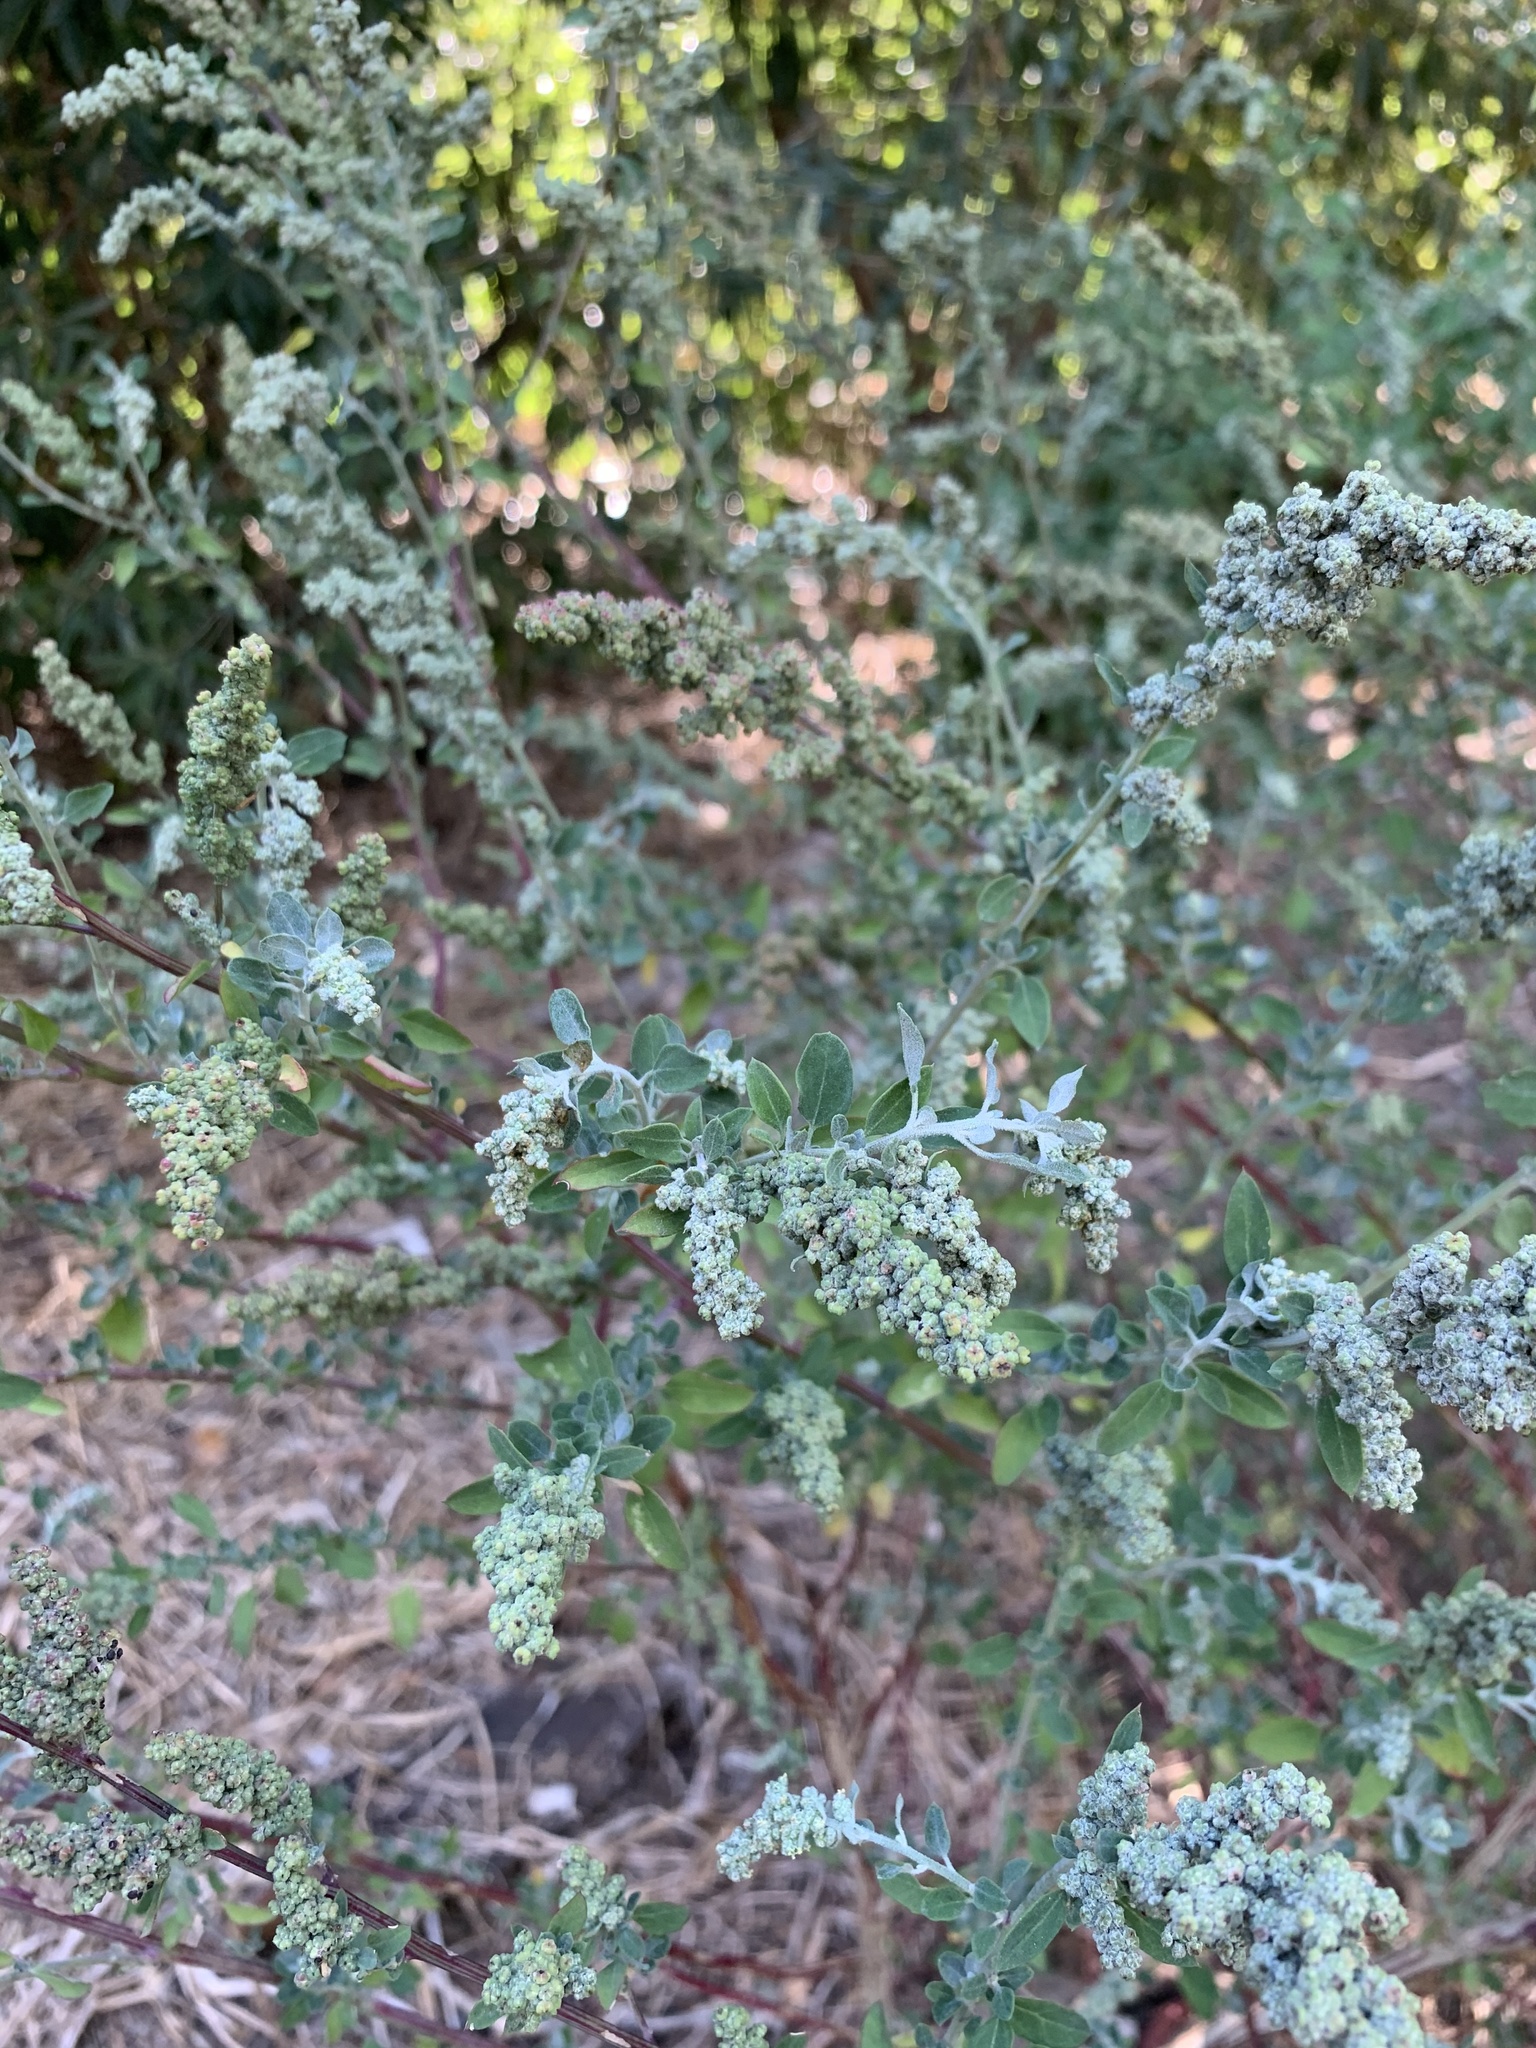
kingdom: Plantae
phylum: Tracheophyta
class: Magnoliopsida
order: Caryophyllales
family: Amaranthaceae
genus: Chenopodium
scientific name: Chenopodium album
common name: Fat-hen
